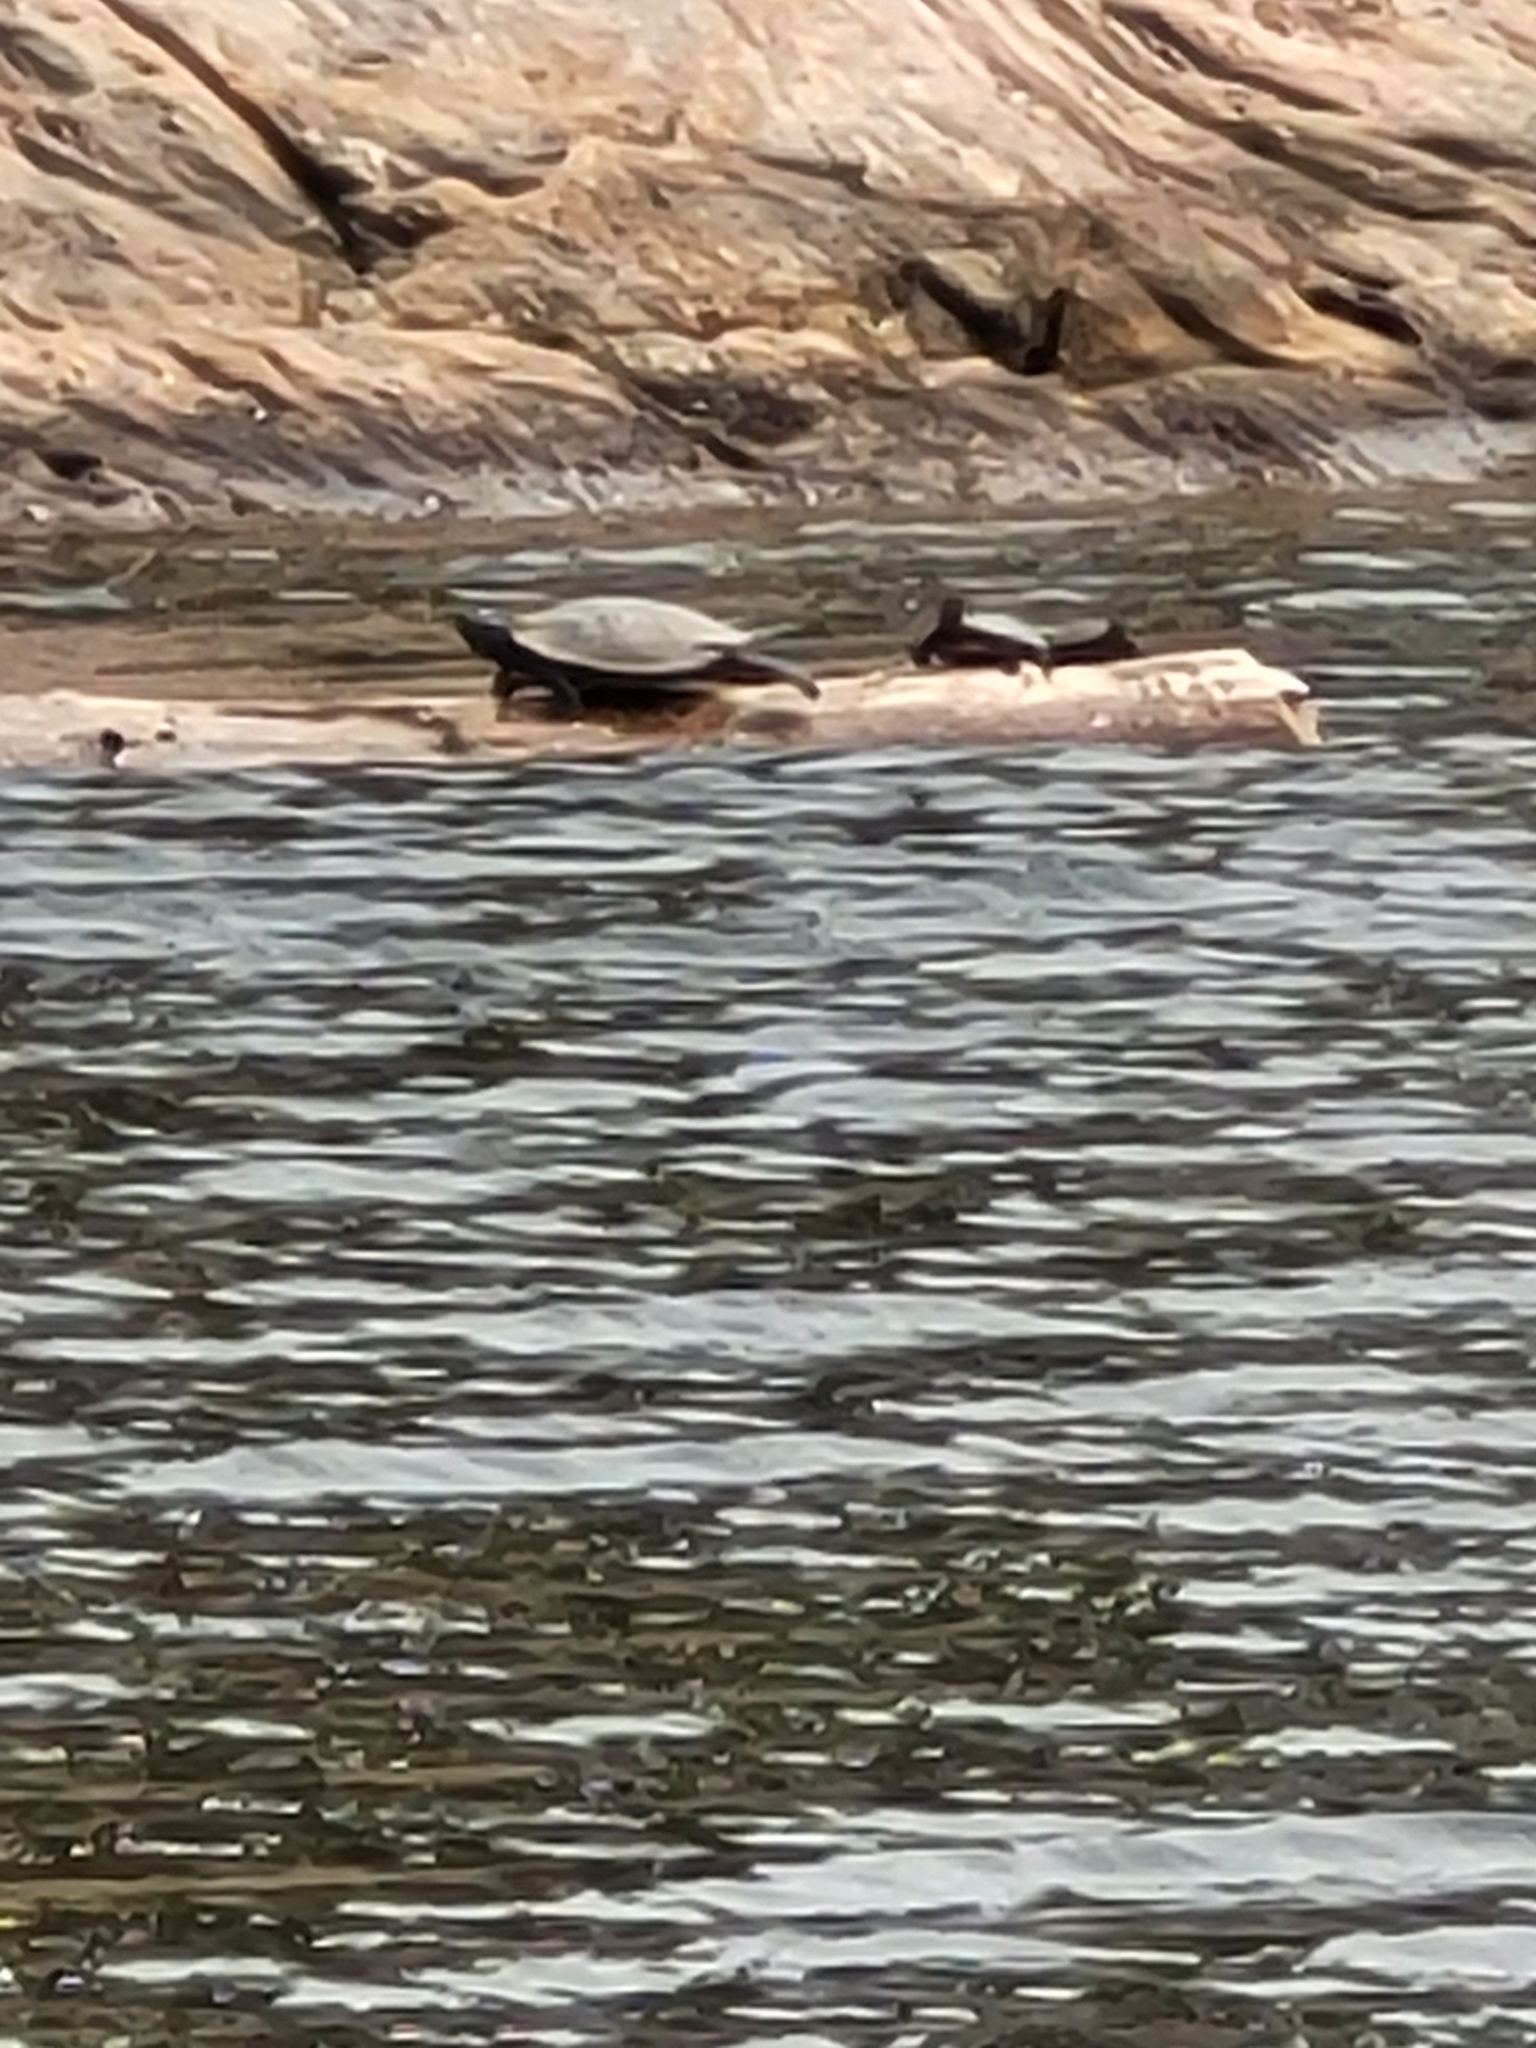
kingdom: Animalia
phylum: Chordata
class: Testudines
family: Emydidae
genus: Graptemys
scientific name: Graptemys geographica
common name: Common map turtle
